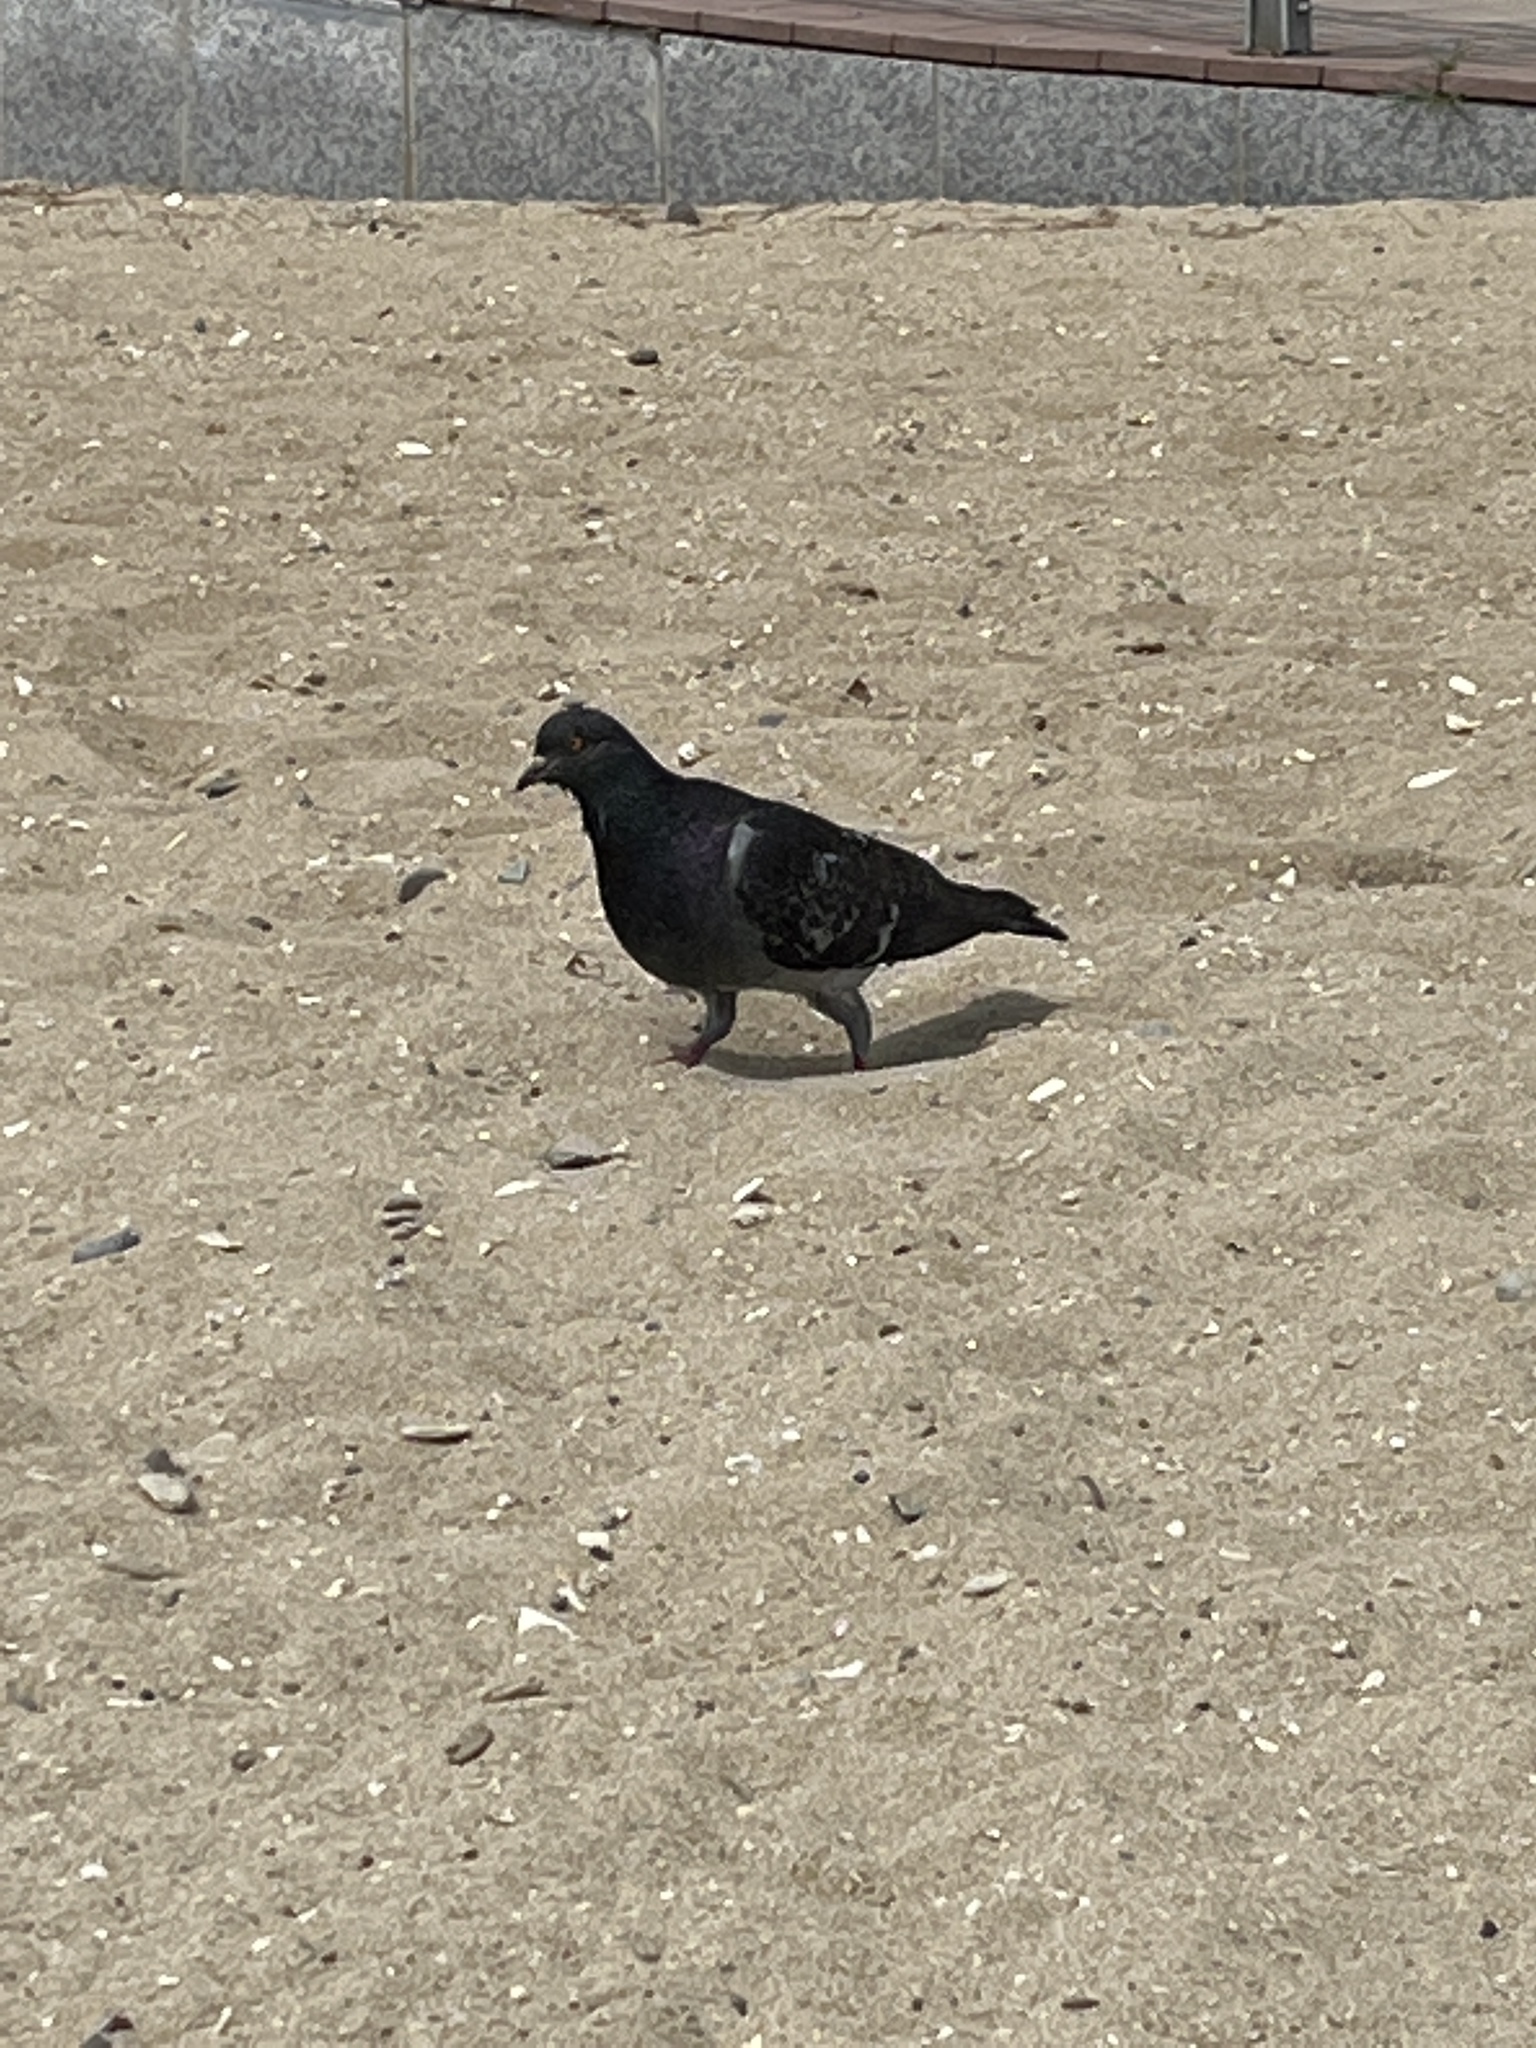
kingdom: Animalia
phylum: Chordata
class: Aves
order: Columbiformes
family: Columbidae
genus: Columba
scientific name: Columba livia
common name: Rock pigeon
